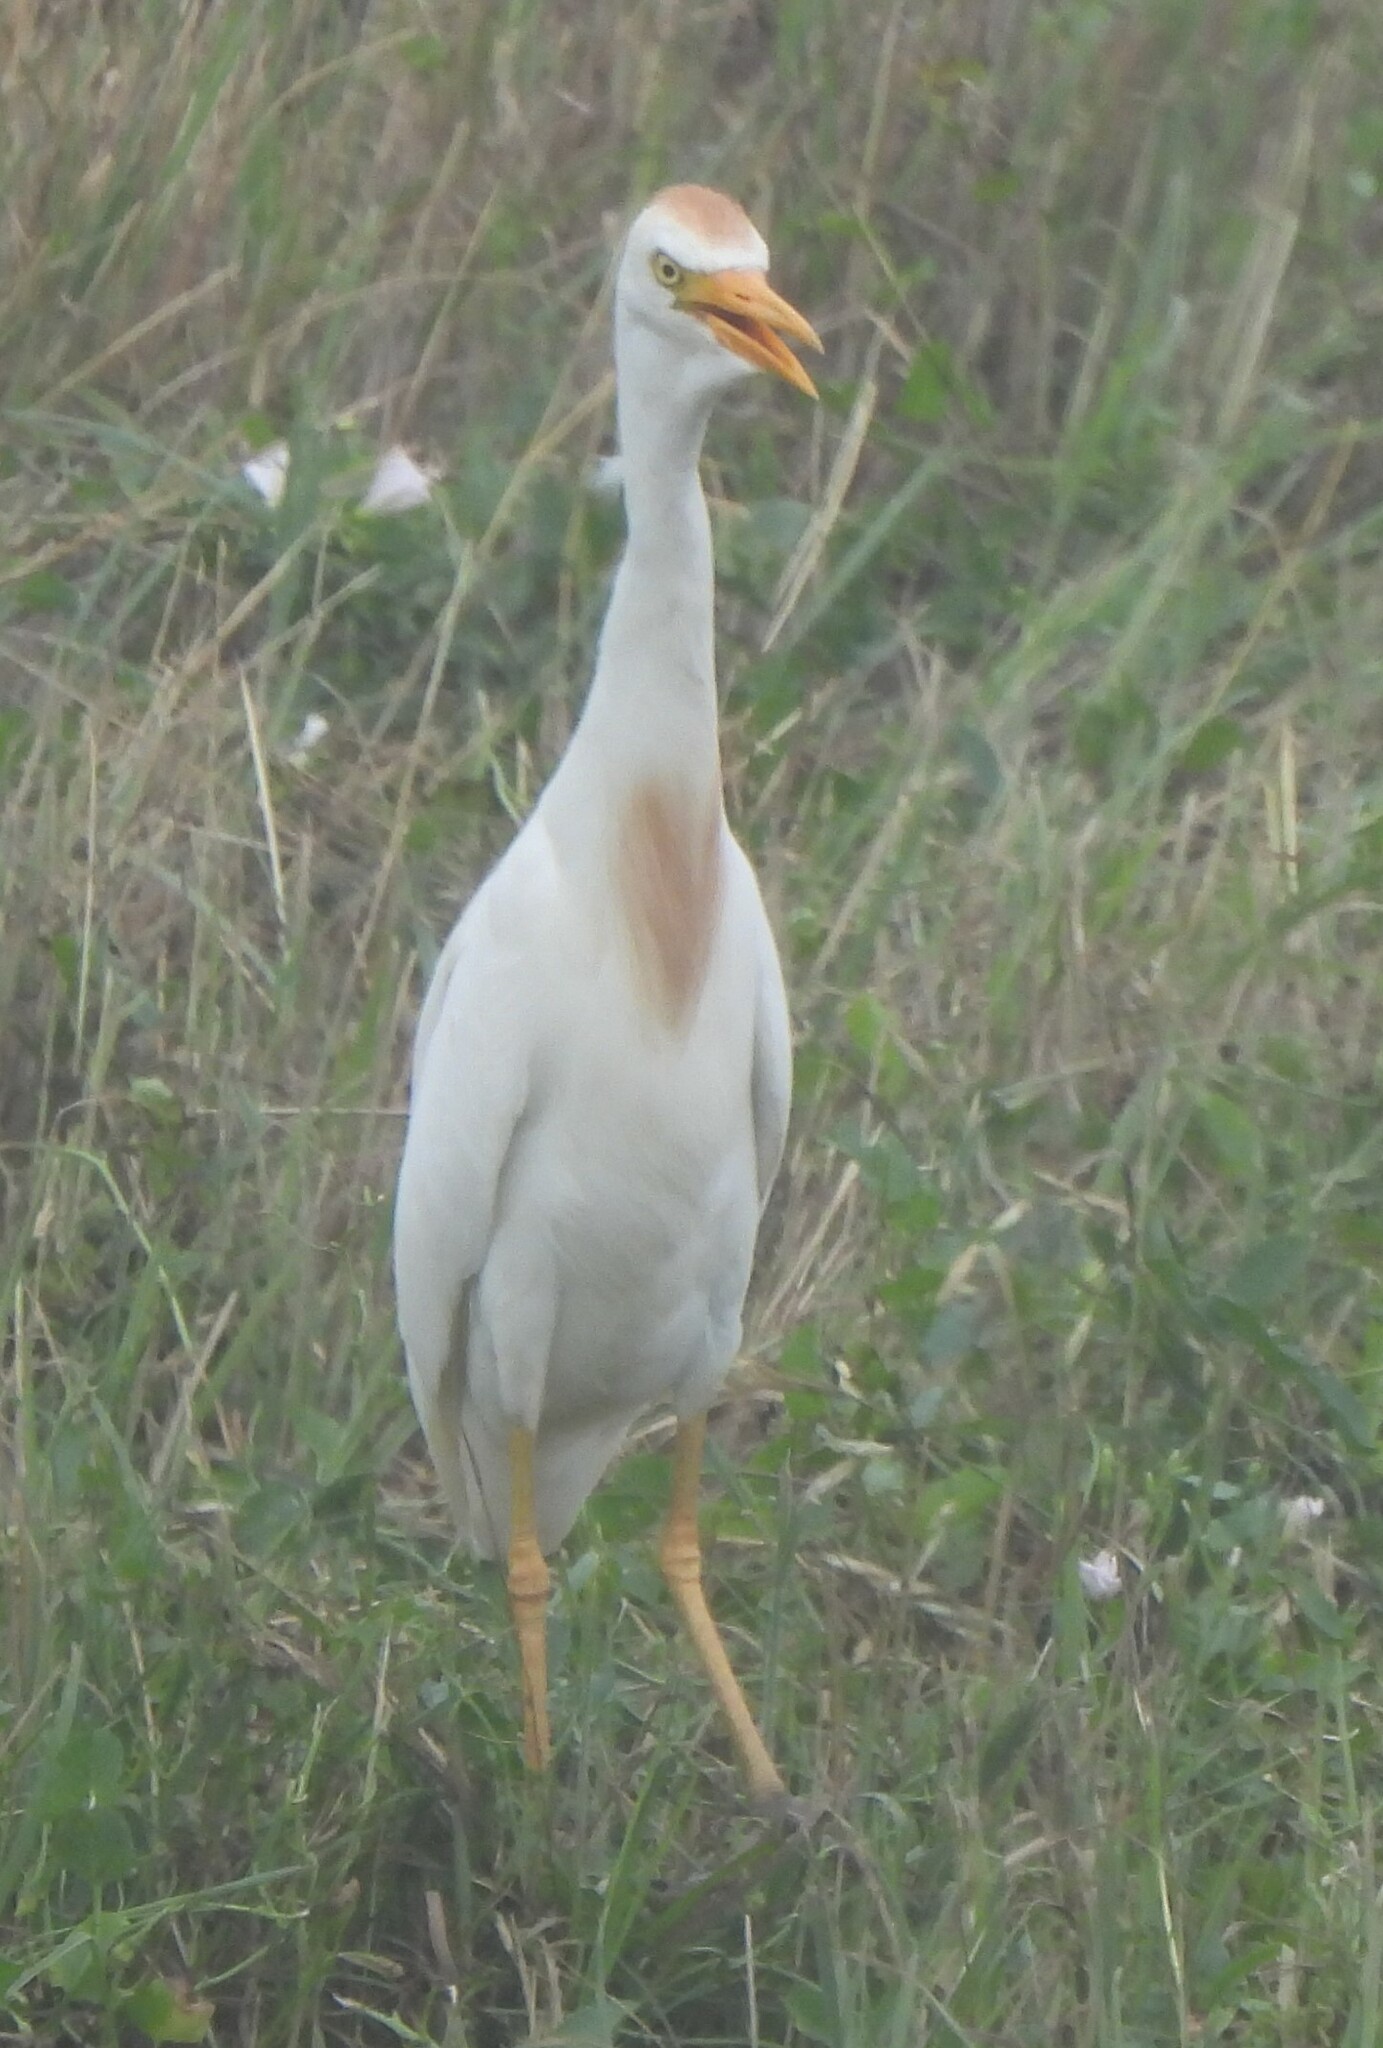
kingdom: Animalia
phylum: Chordata
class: Aves
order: Pelecaniformes
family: Ardeidae
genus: Bubulcus
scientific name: Bubulcus ibis
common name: Cattle egret
